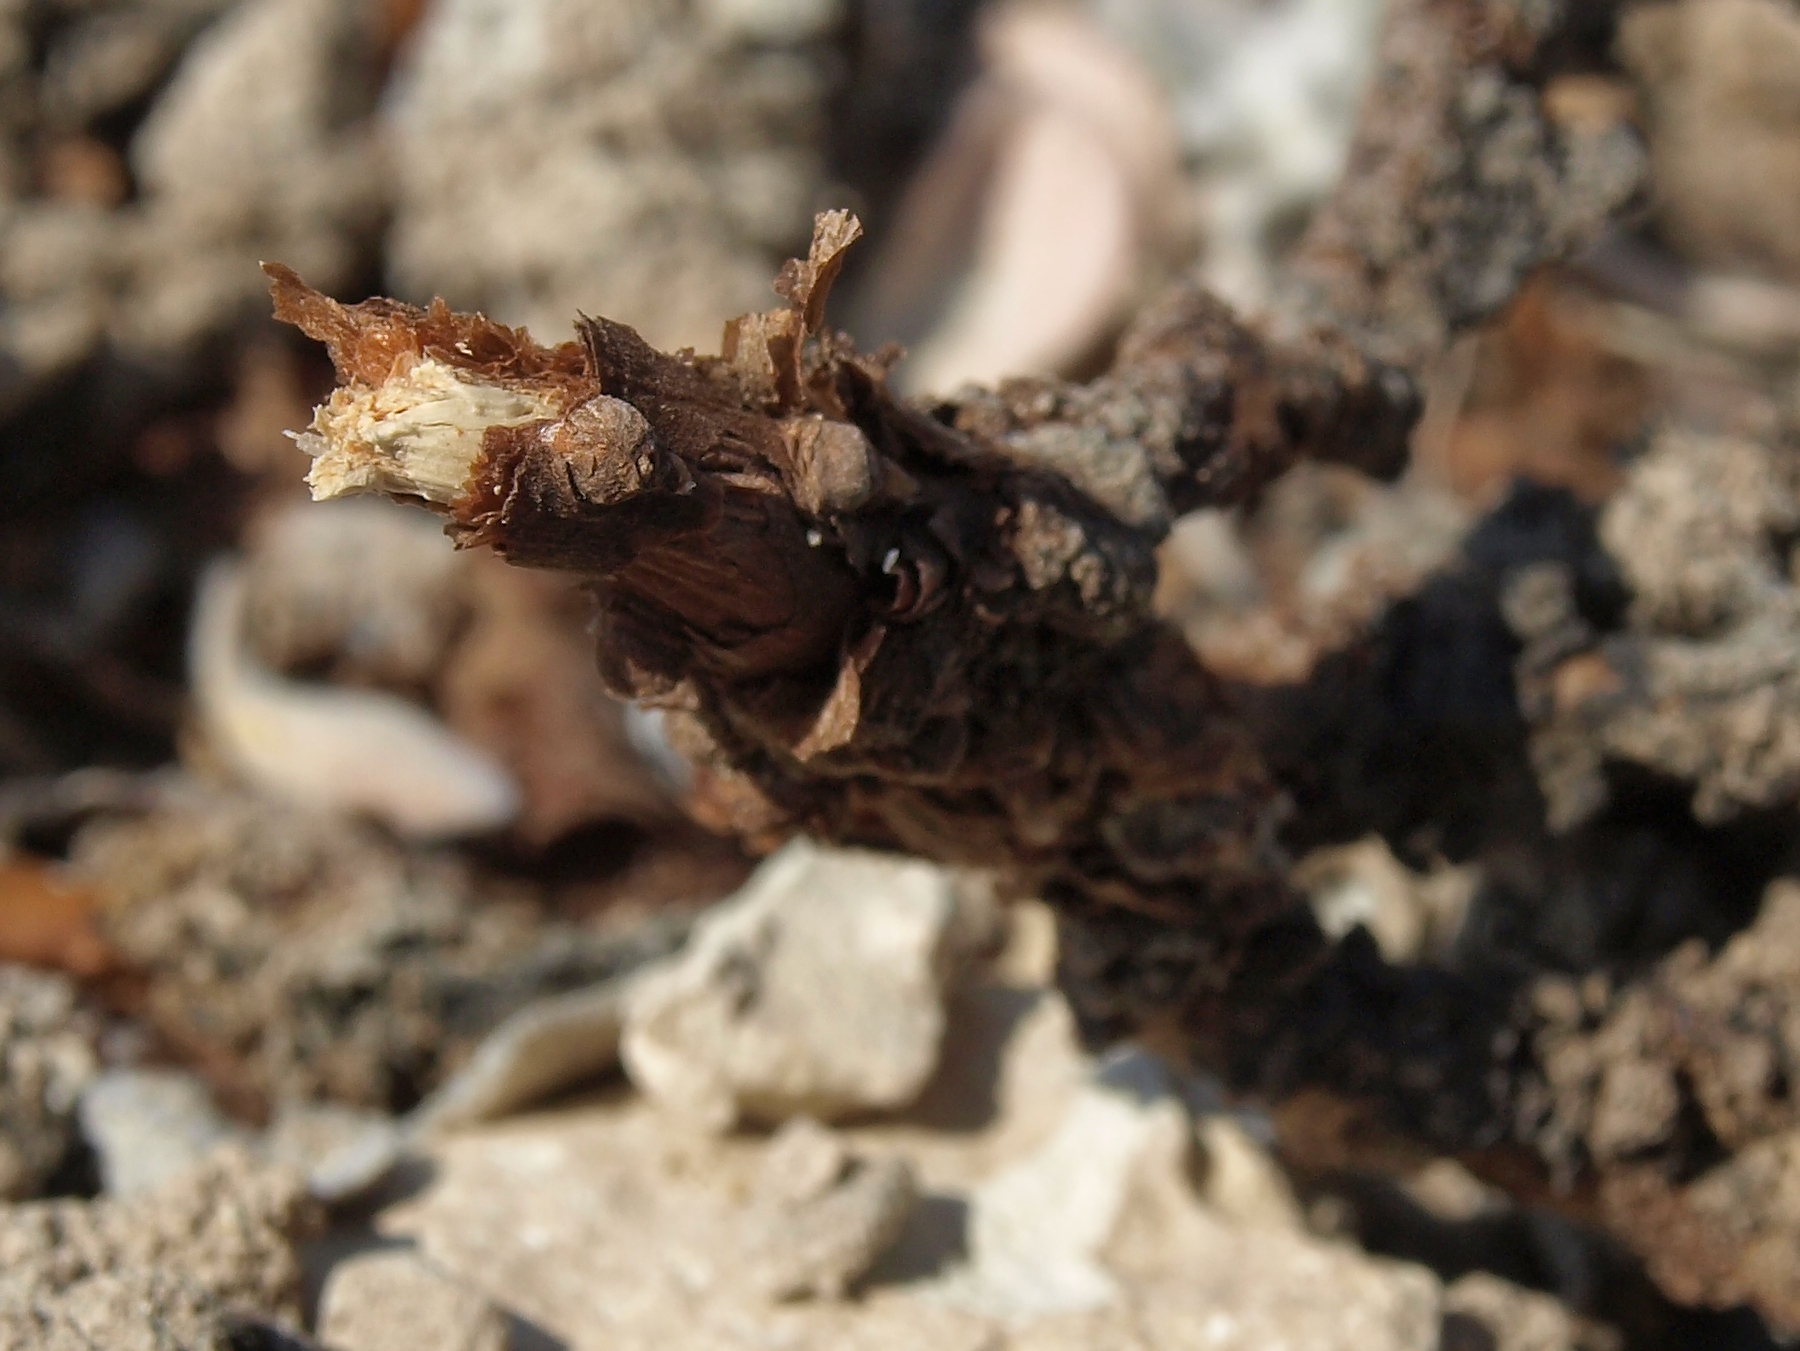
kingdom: Plantae
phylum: Tracheophyta
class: Magnoliopsida
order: Caryophyllales
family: Polygonaceae
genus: Eriogonum
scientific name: Eriogonum tiehmii
